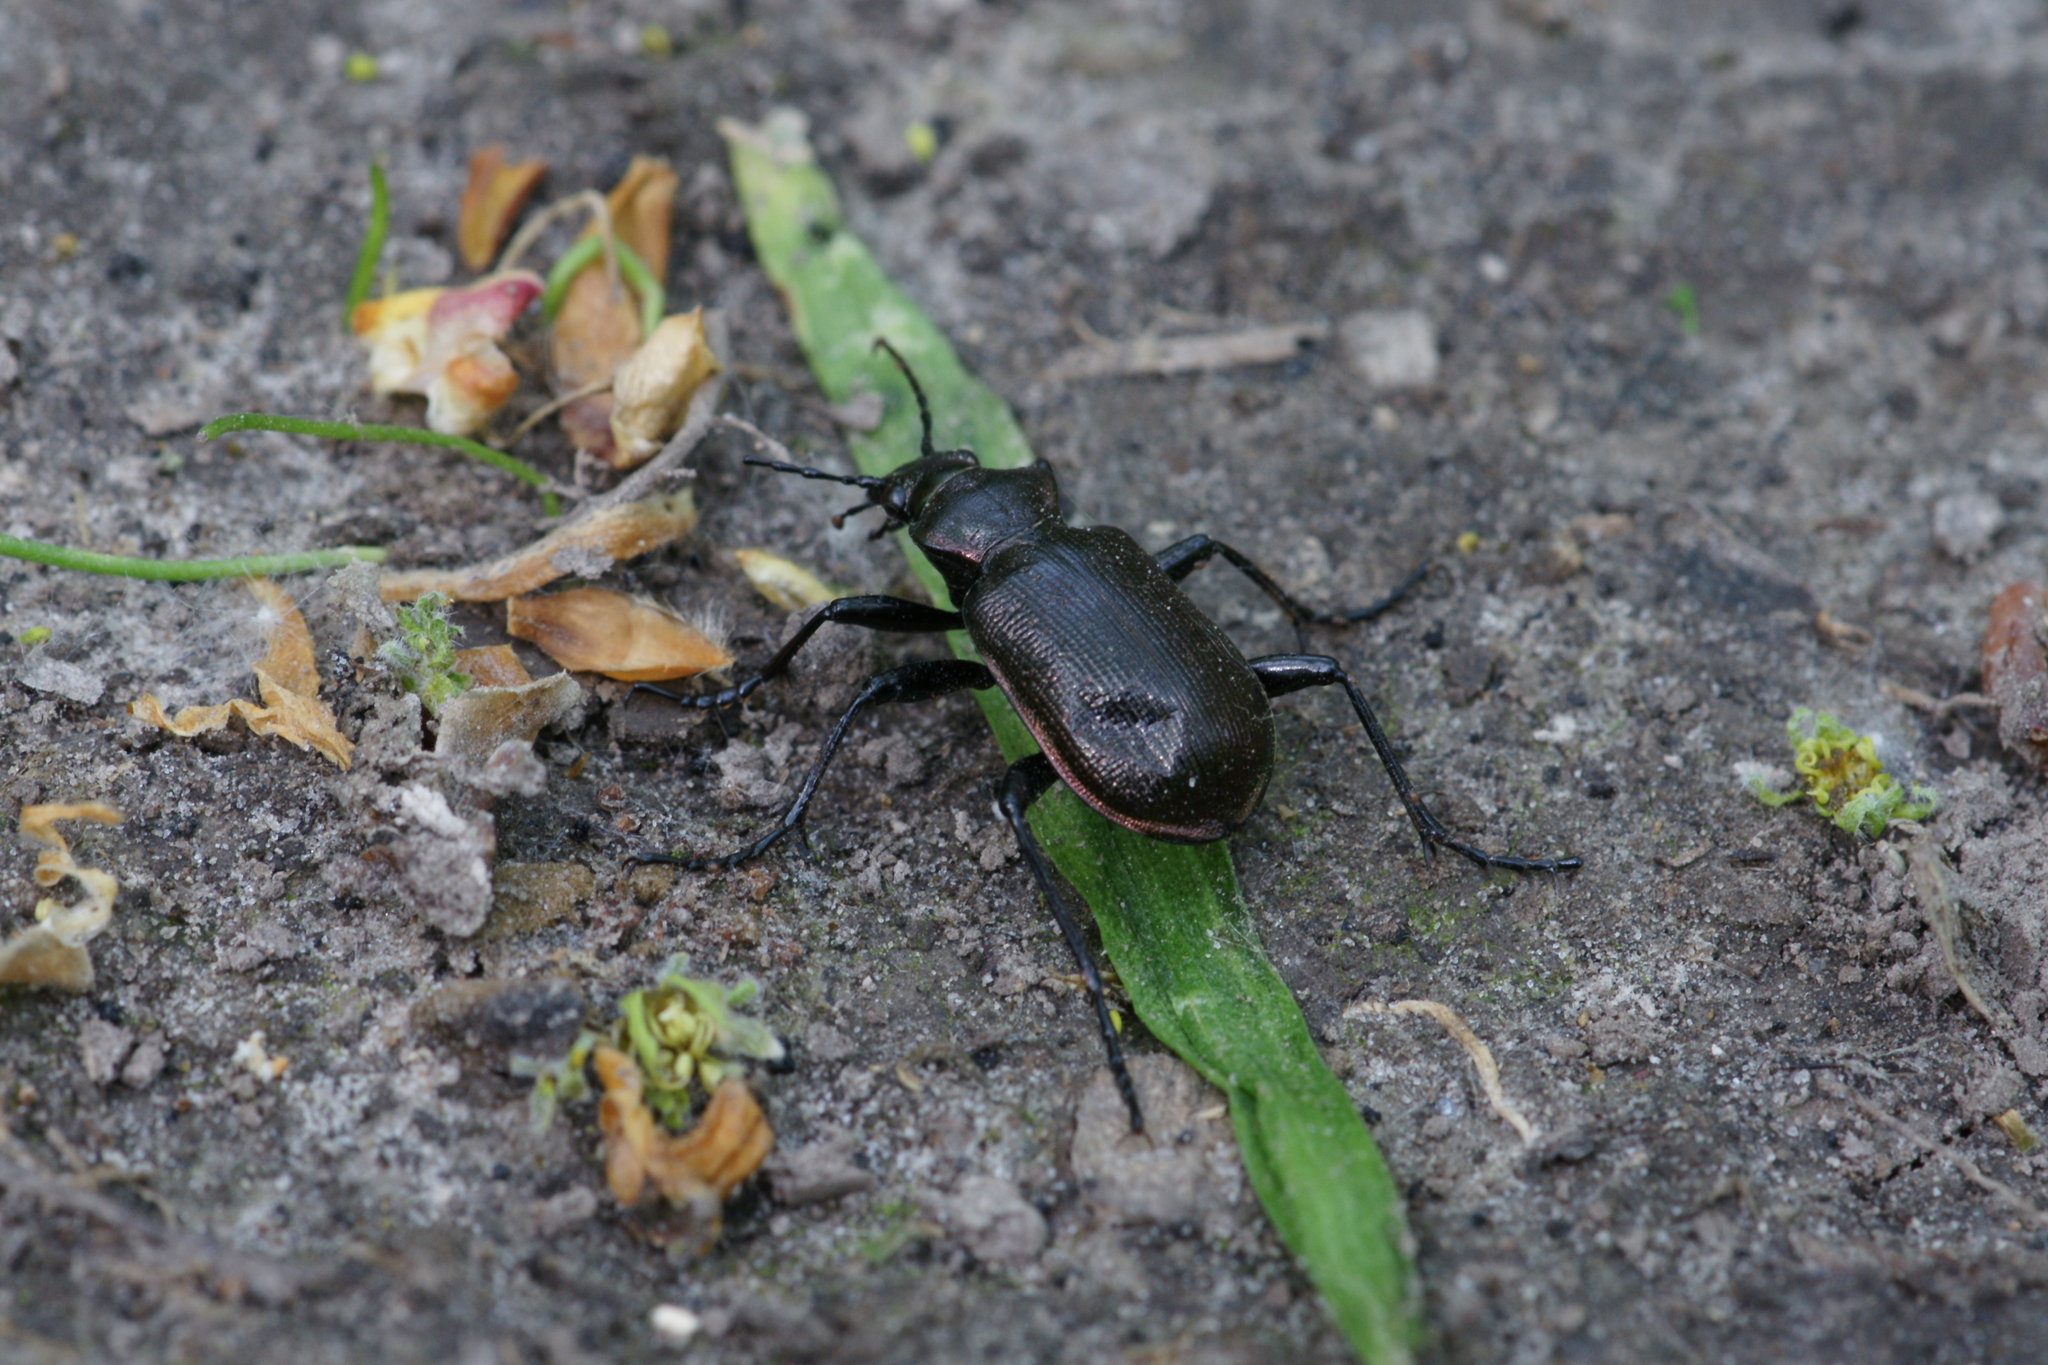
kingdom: Animalia
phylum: Arthropoda
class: Insecta
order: Coleoptera
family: Carabidae
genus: Calosoma
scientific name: Calosoma inquisitor
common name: Caterpillar-hunter
